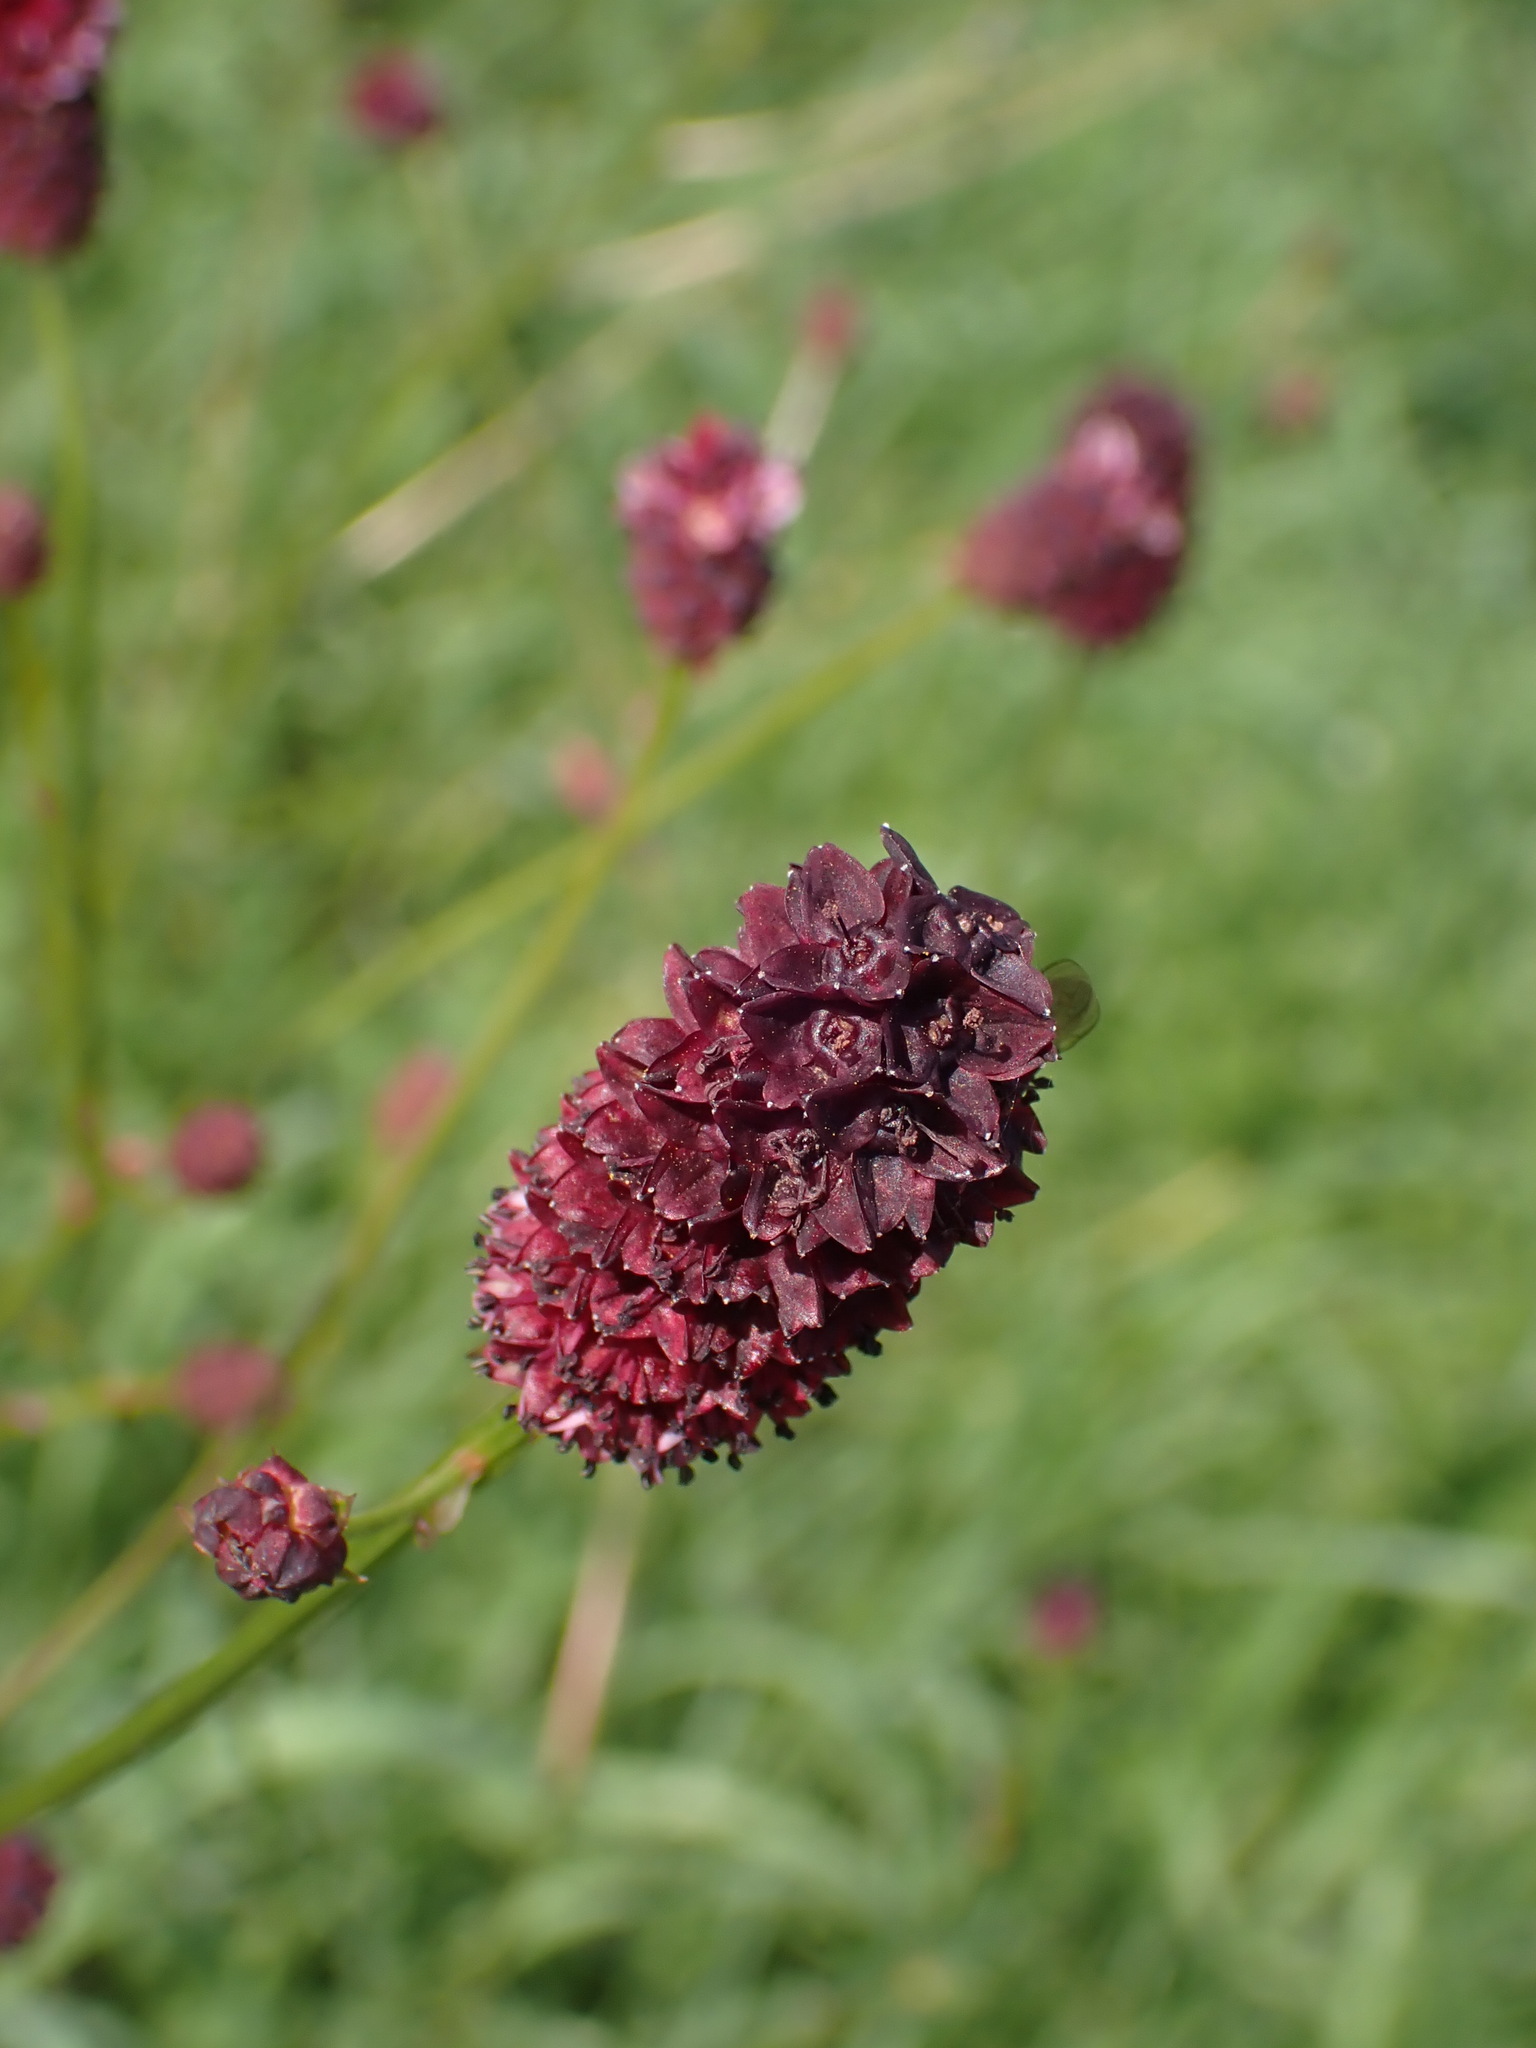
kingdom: Plantae
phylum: Tracheophyta
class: Magnoliopsida
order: Rosales
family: Rosaceae
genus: Sanguisorba
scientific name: Sanguisorba officinalis
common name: Great burnet
